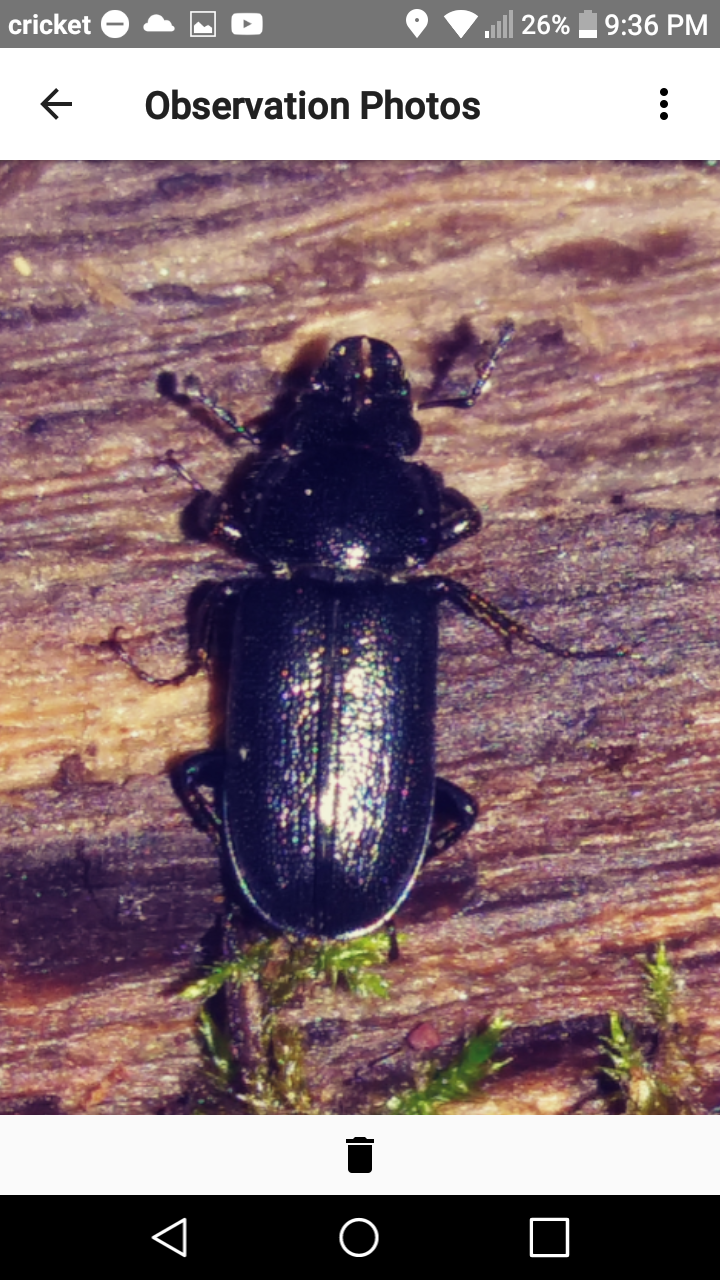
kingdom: Animalia
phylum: Arthropoda
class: Insecta
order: Coleoptera
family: Lucanidae
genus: Platycerus
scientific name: Platycerus quercus
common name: Oak stag beetle
